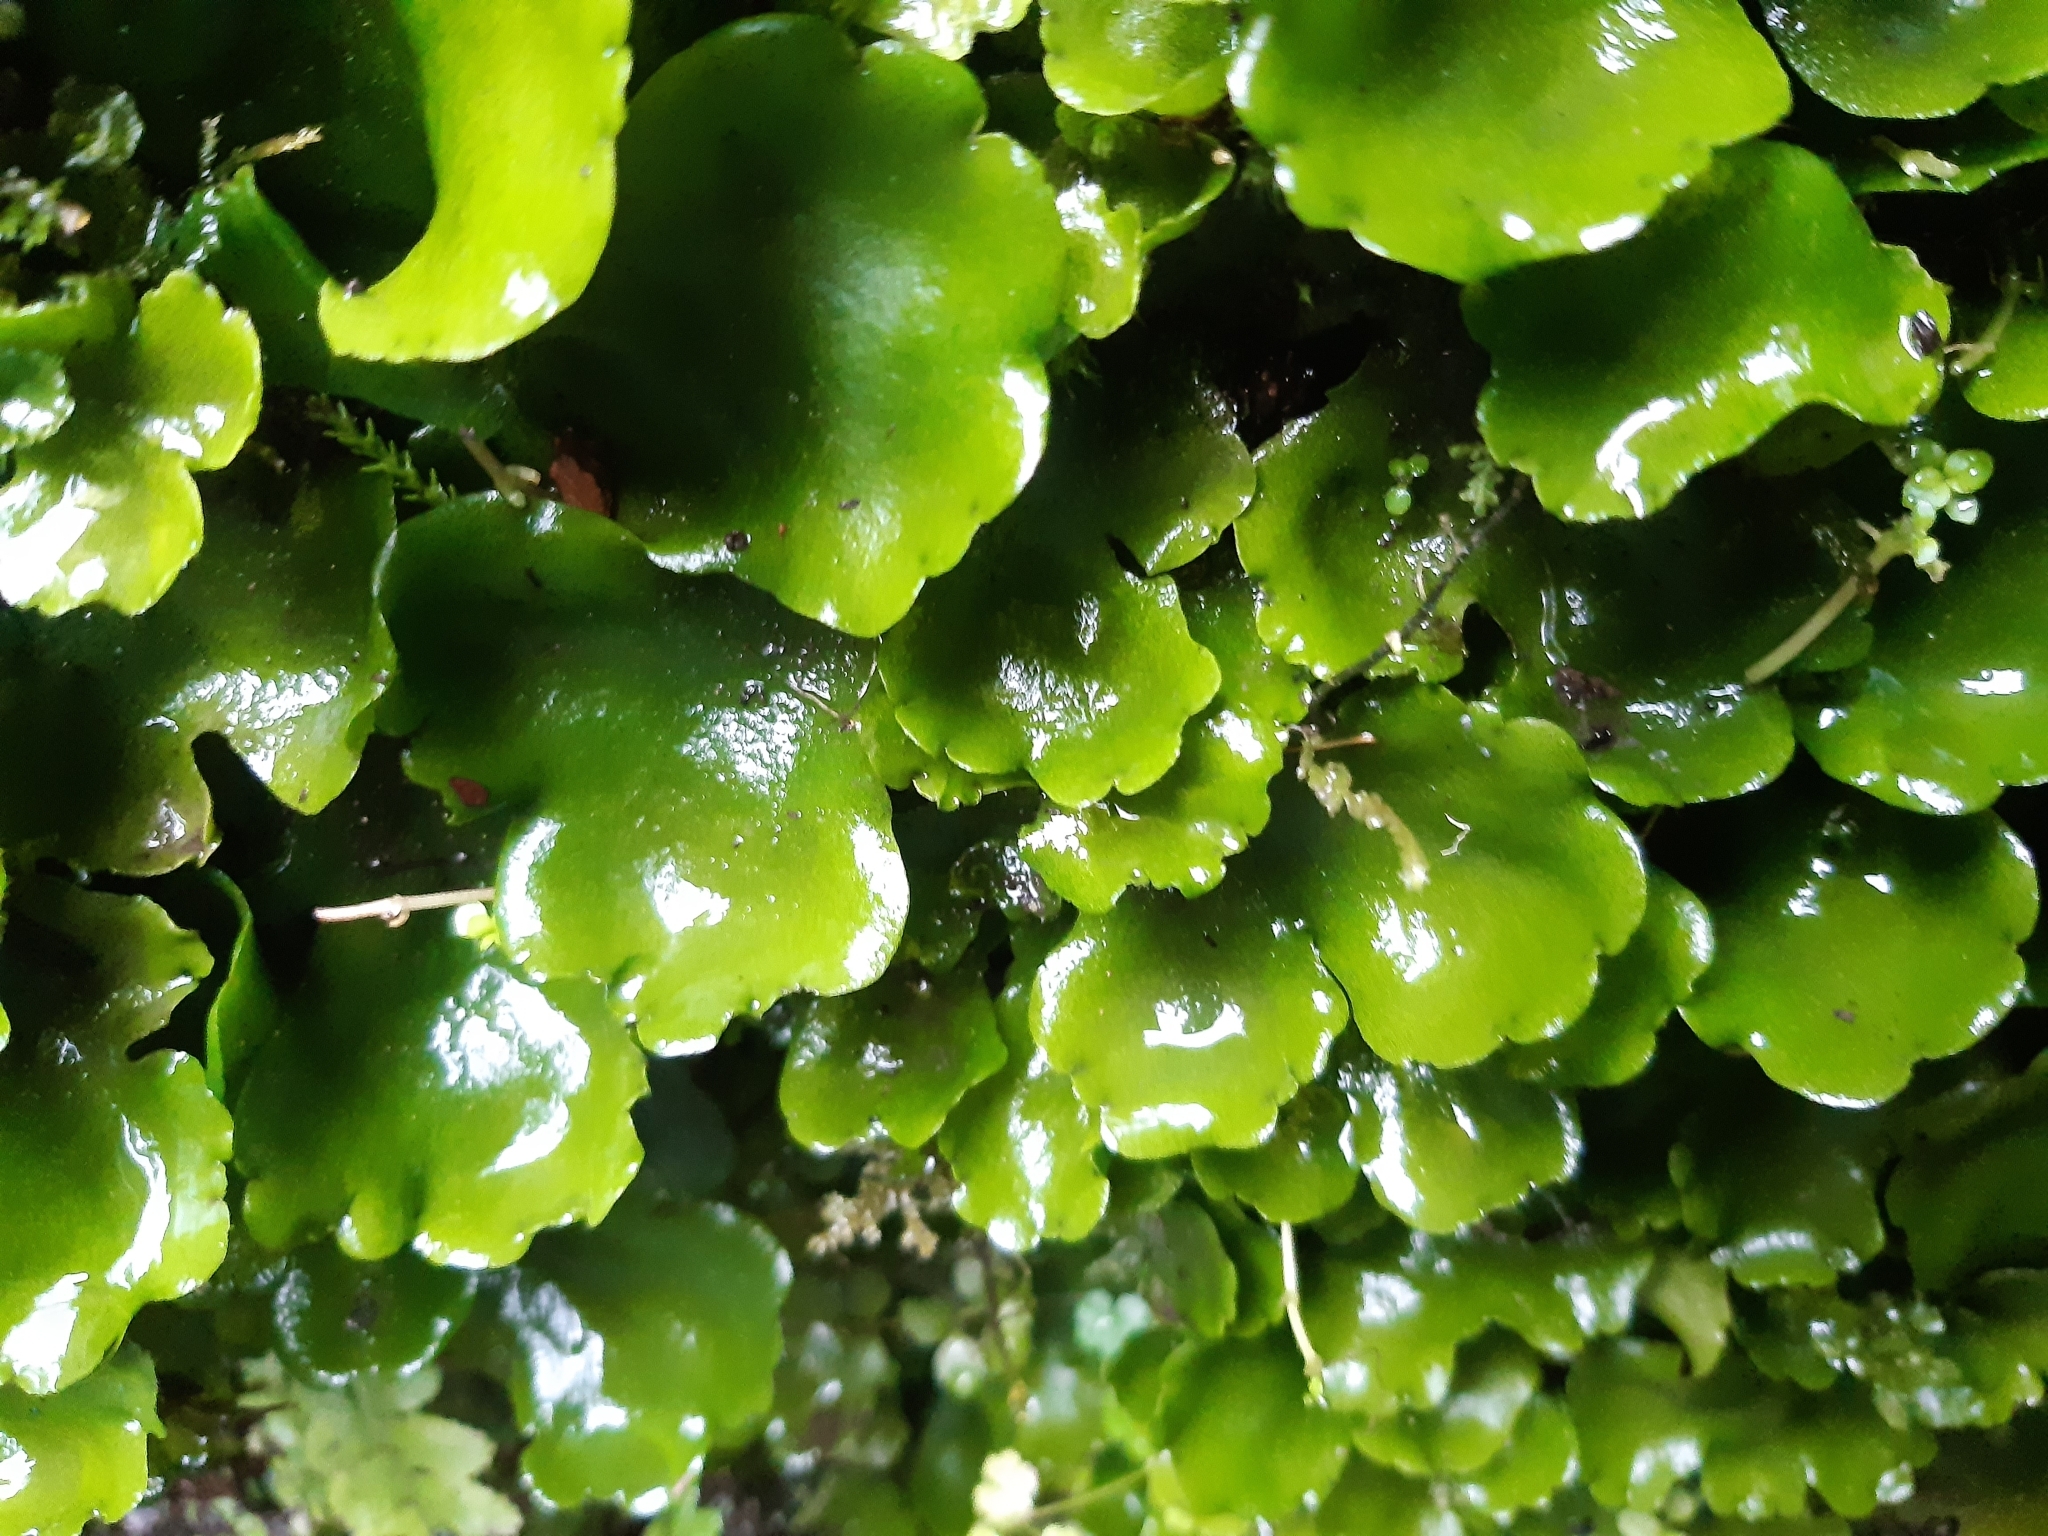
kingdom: Plantae
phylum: Marchantiophyta
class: Marchantiopsida
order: Marchantiales
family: Monocleaceae
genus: Monoclea
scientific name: Monoclea forsteri
